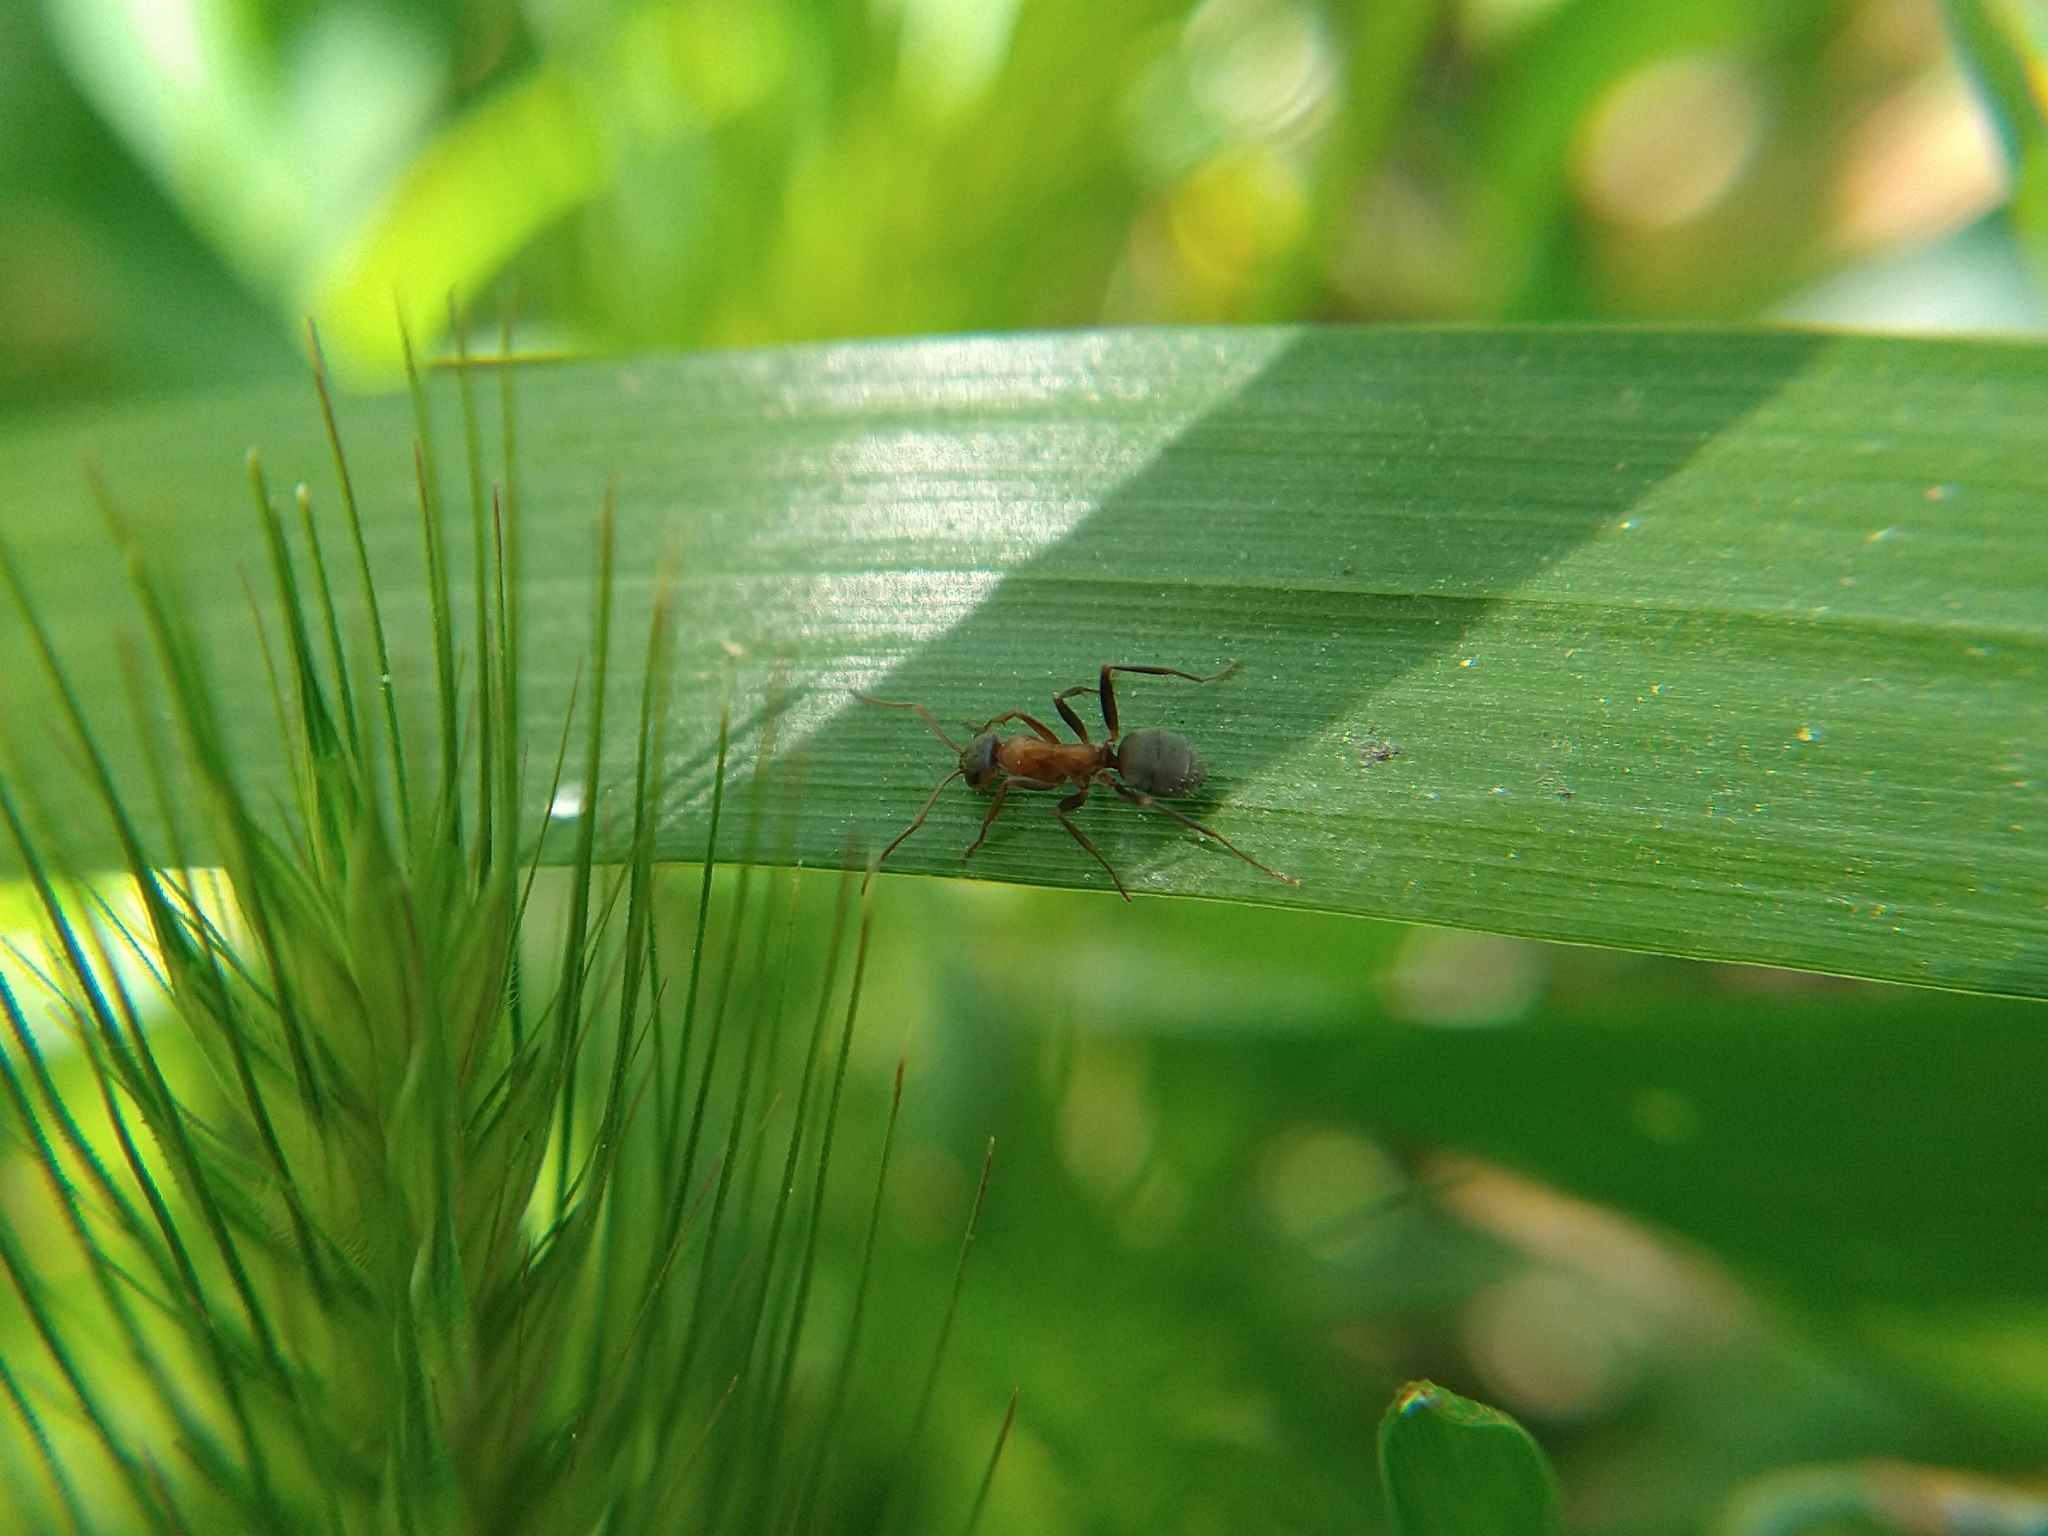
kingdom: Animalia
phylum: Arthropoda
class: Insecta
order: Hymenoptera
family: Formicidae
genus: Formica
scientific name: Formica
